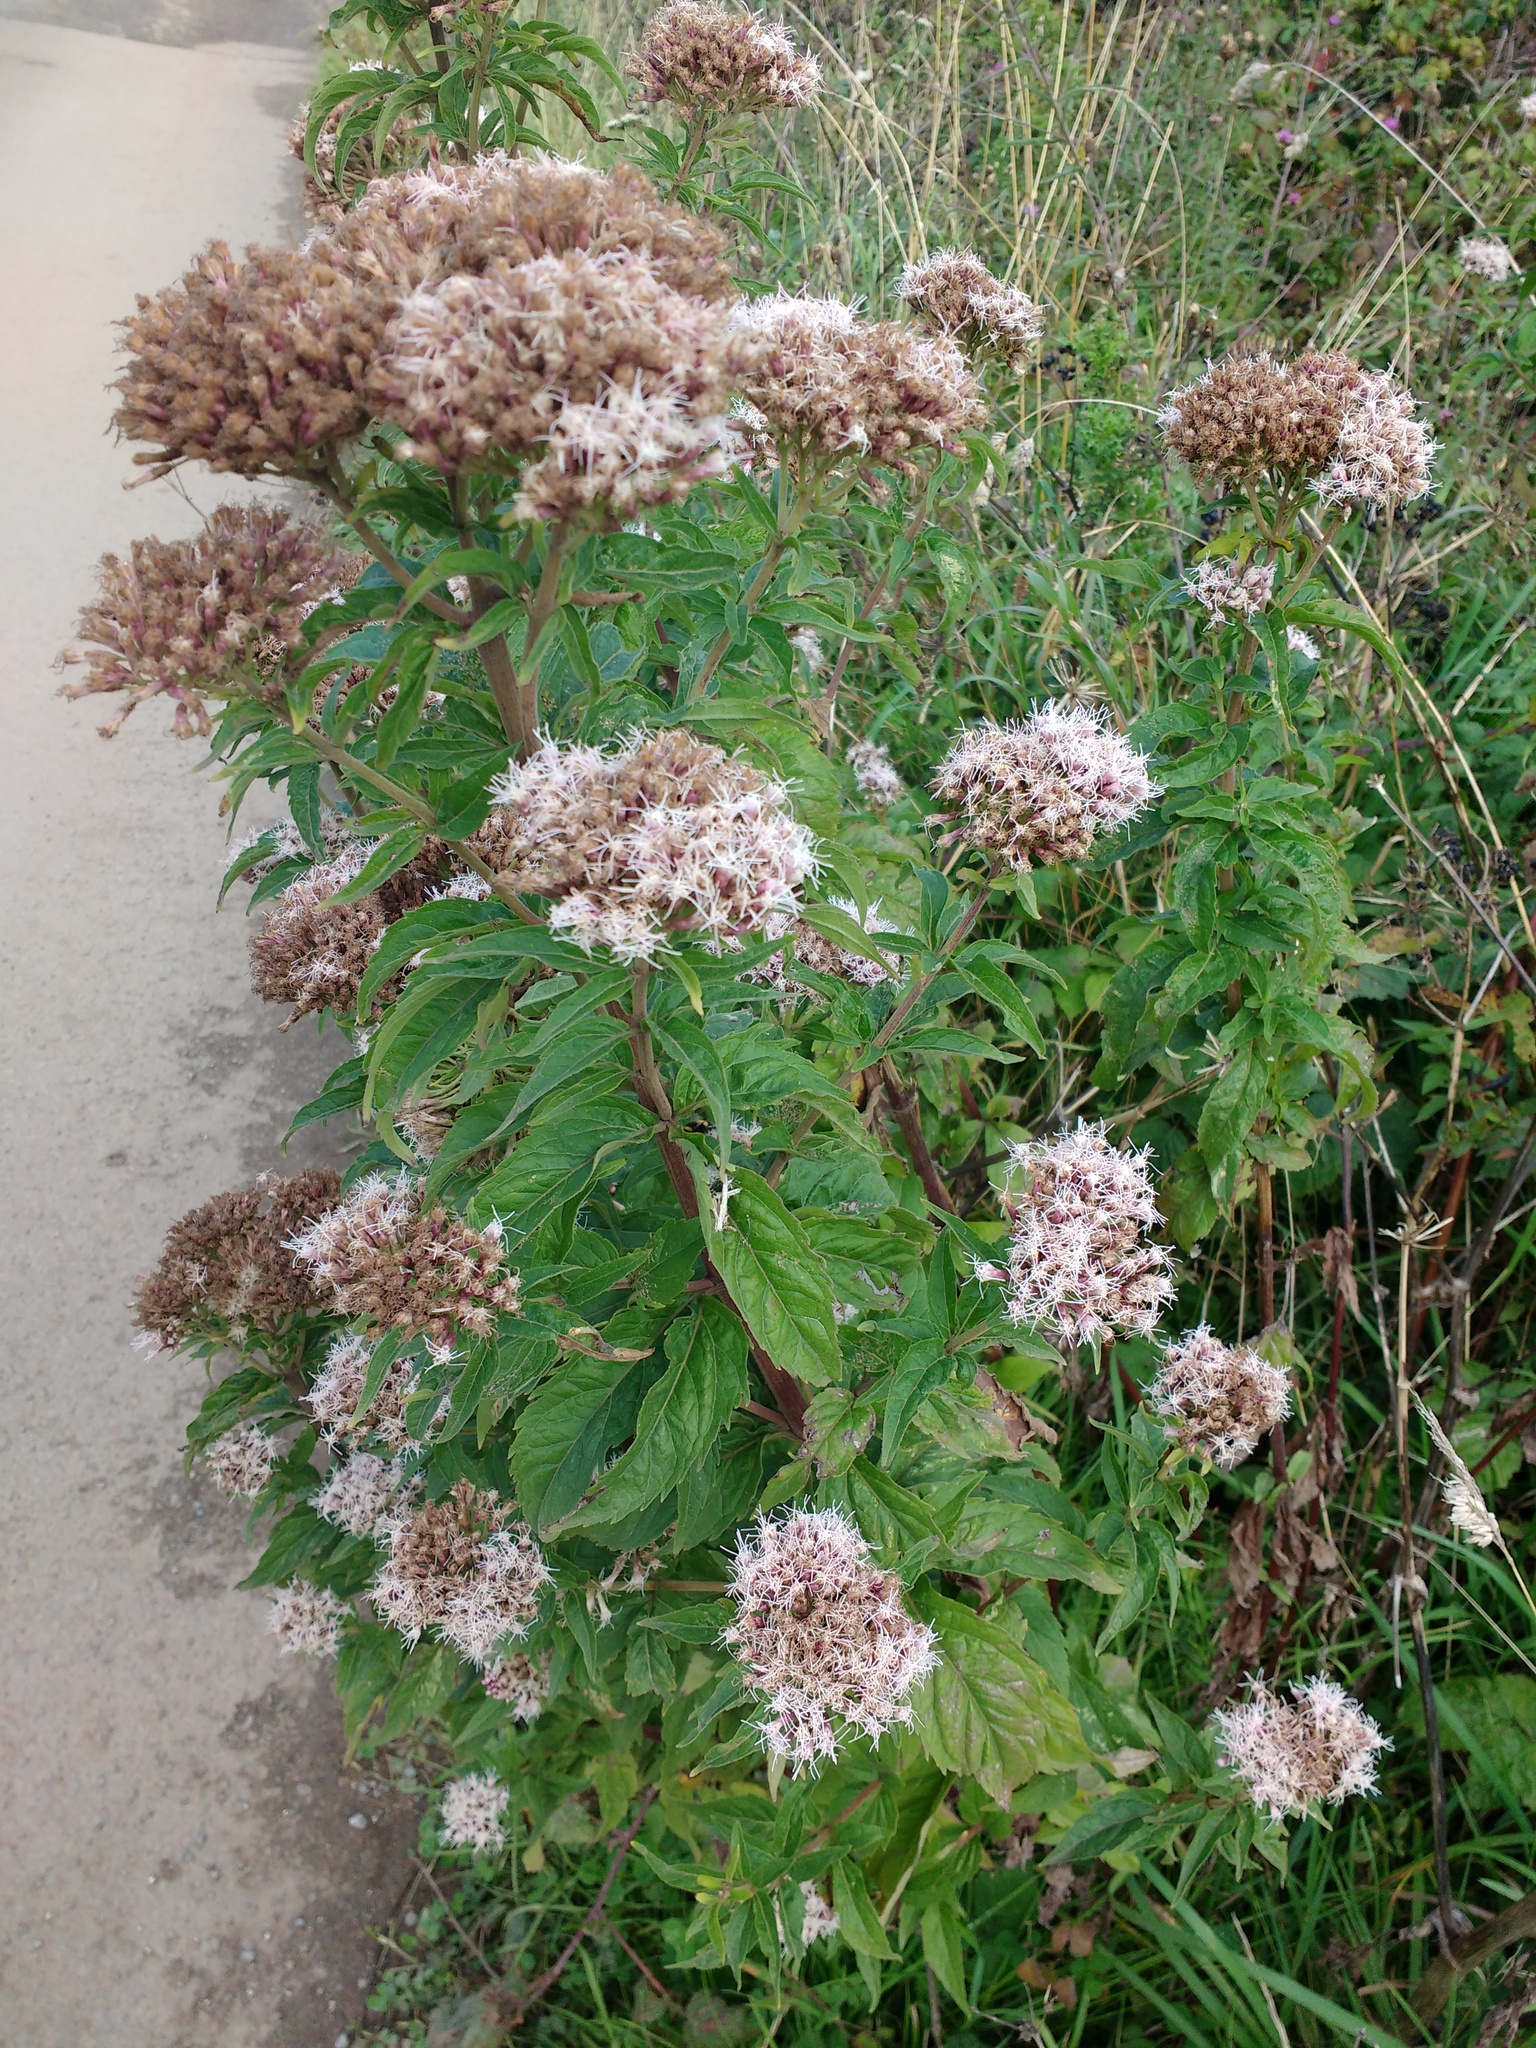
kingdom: Plantae
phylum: Tracheophyta
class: Magnoliopsida
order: Asterales
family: Asteraceae
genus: Eupatorium
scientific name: Eupatorium cannabinum
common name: Hemp-agrimony
